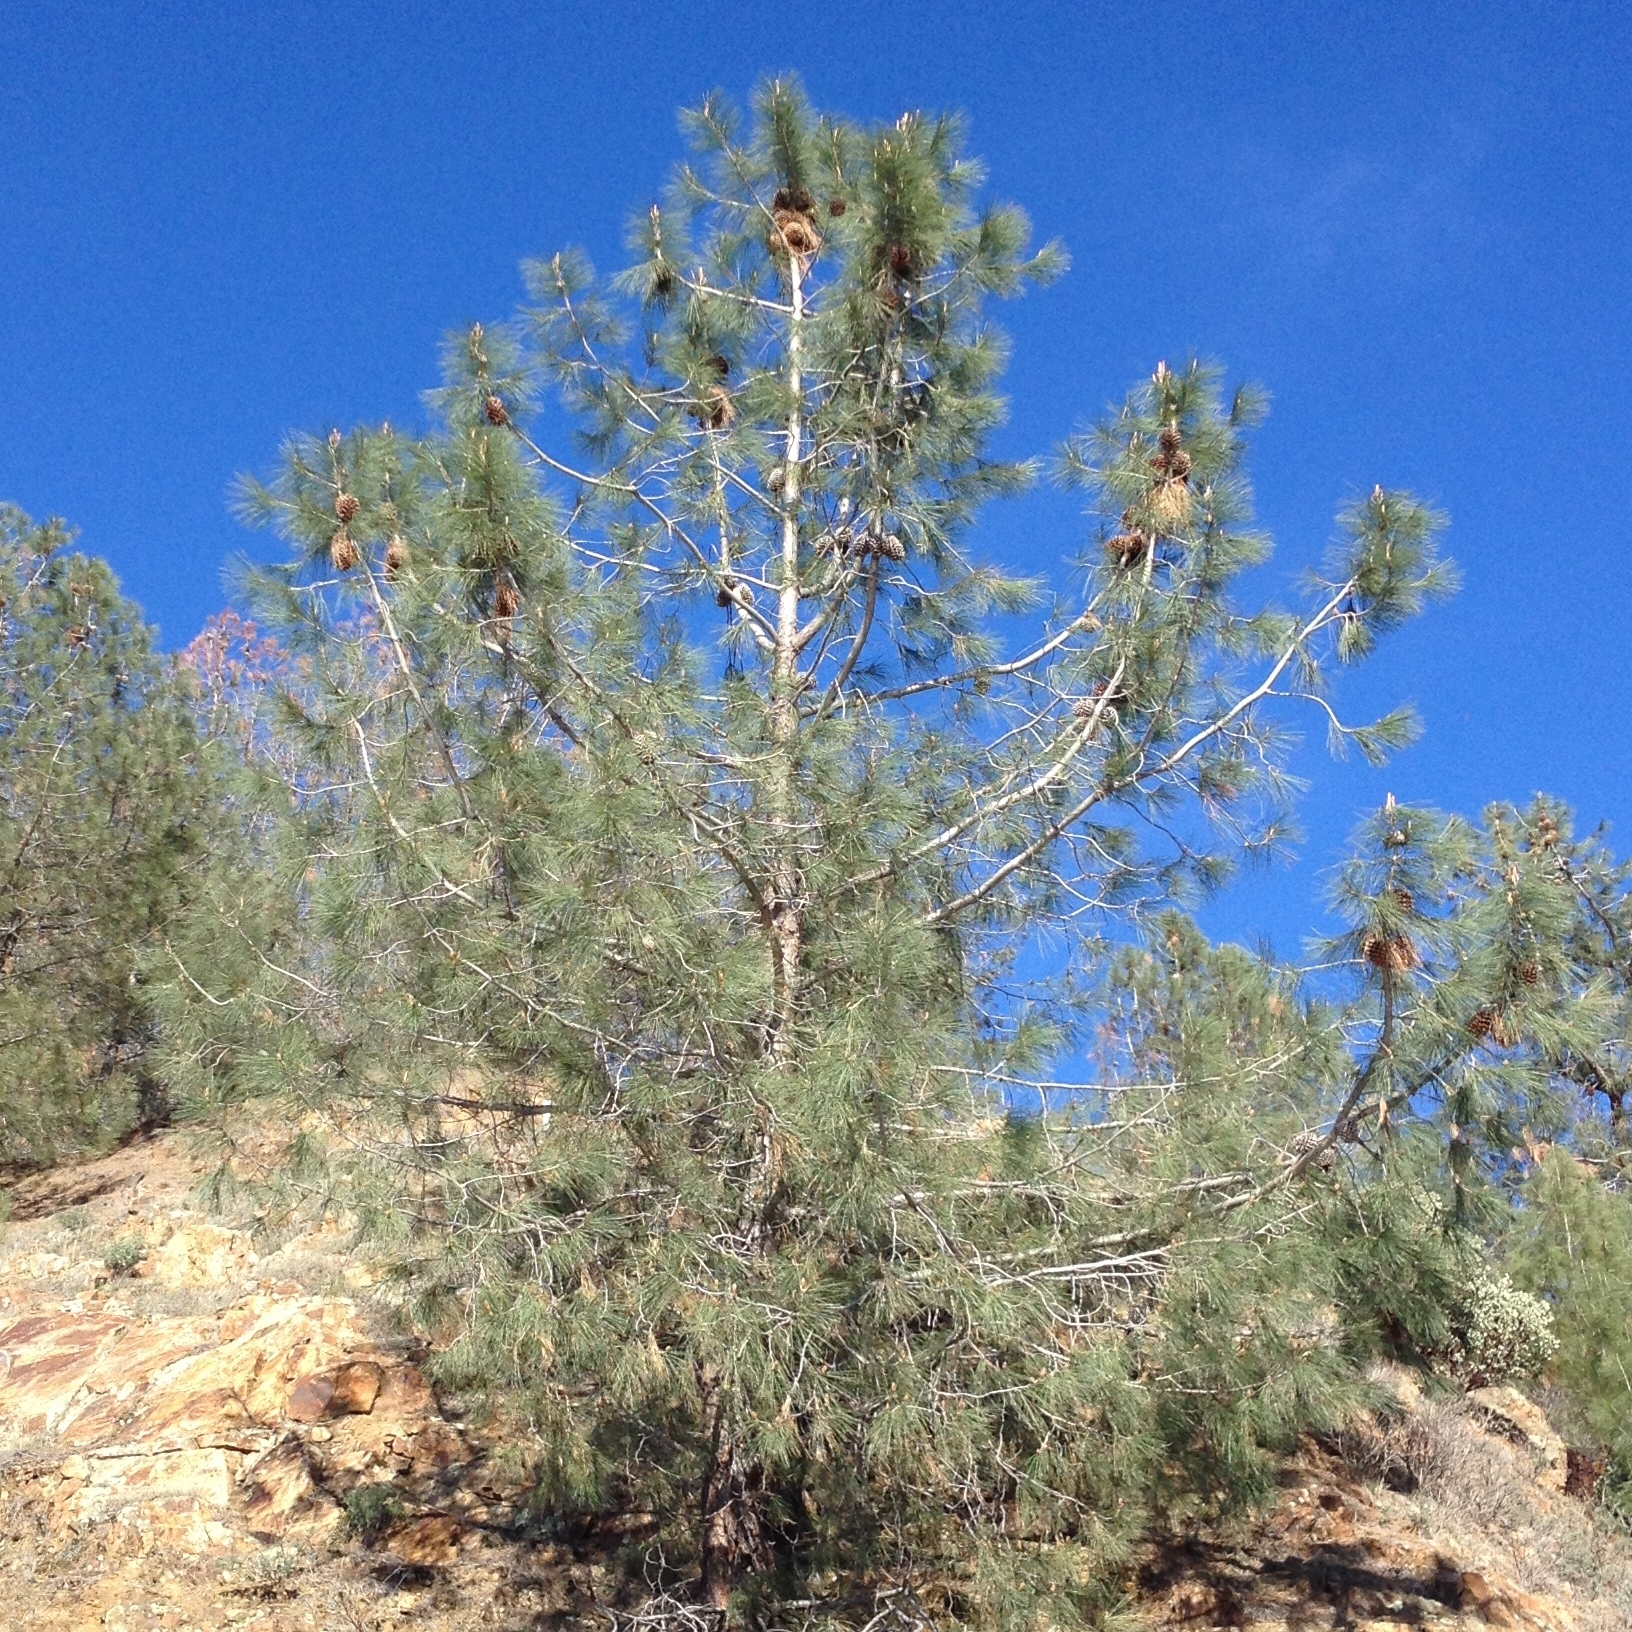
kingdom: Plantae
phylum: Tracheophyta
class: Pinopsida
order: Pinales
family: Pinaceae
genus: Pinus
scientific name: Pinus sabiniana
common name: Bull pine
